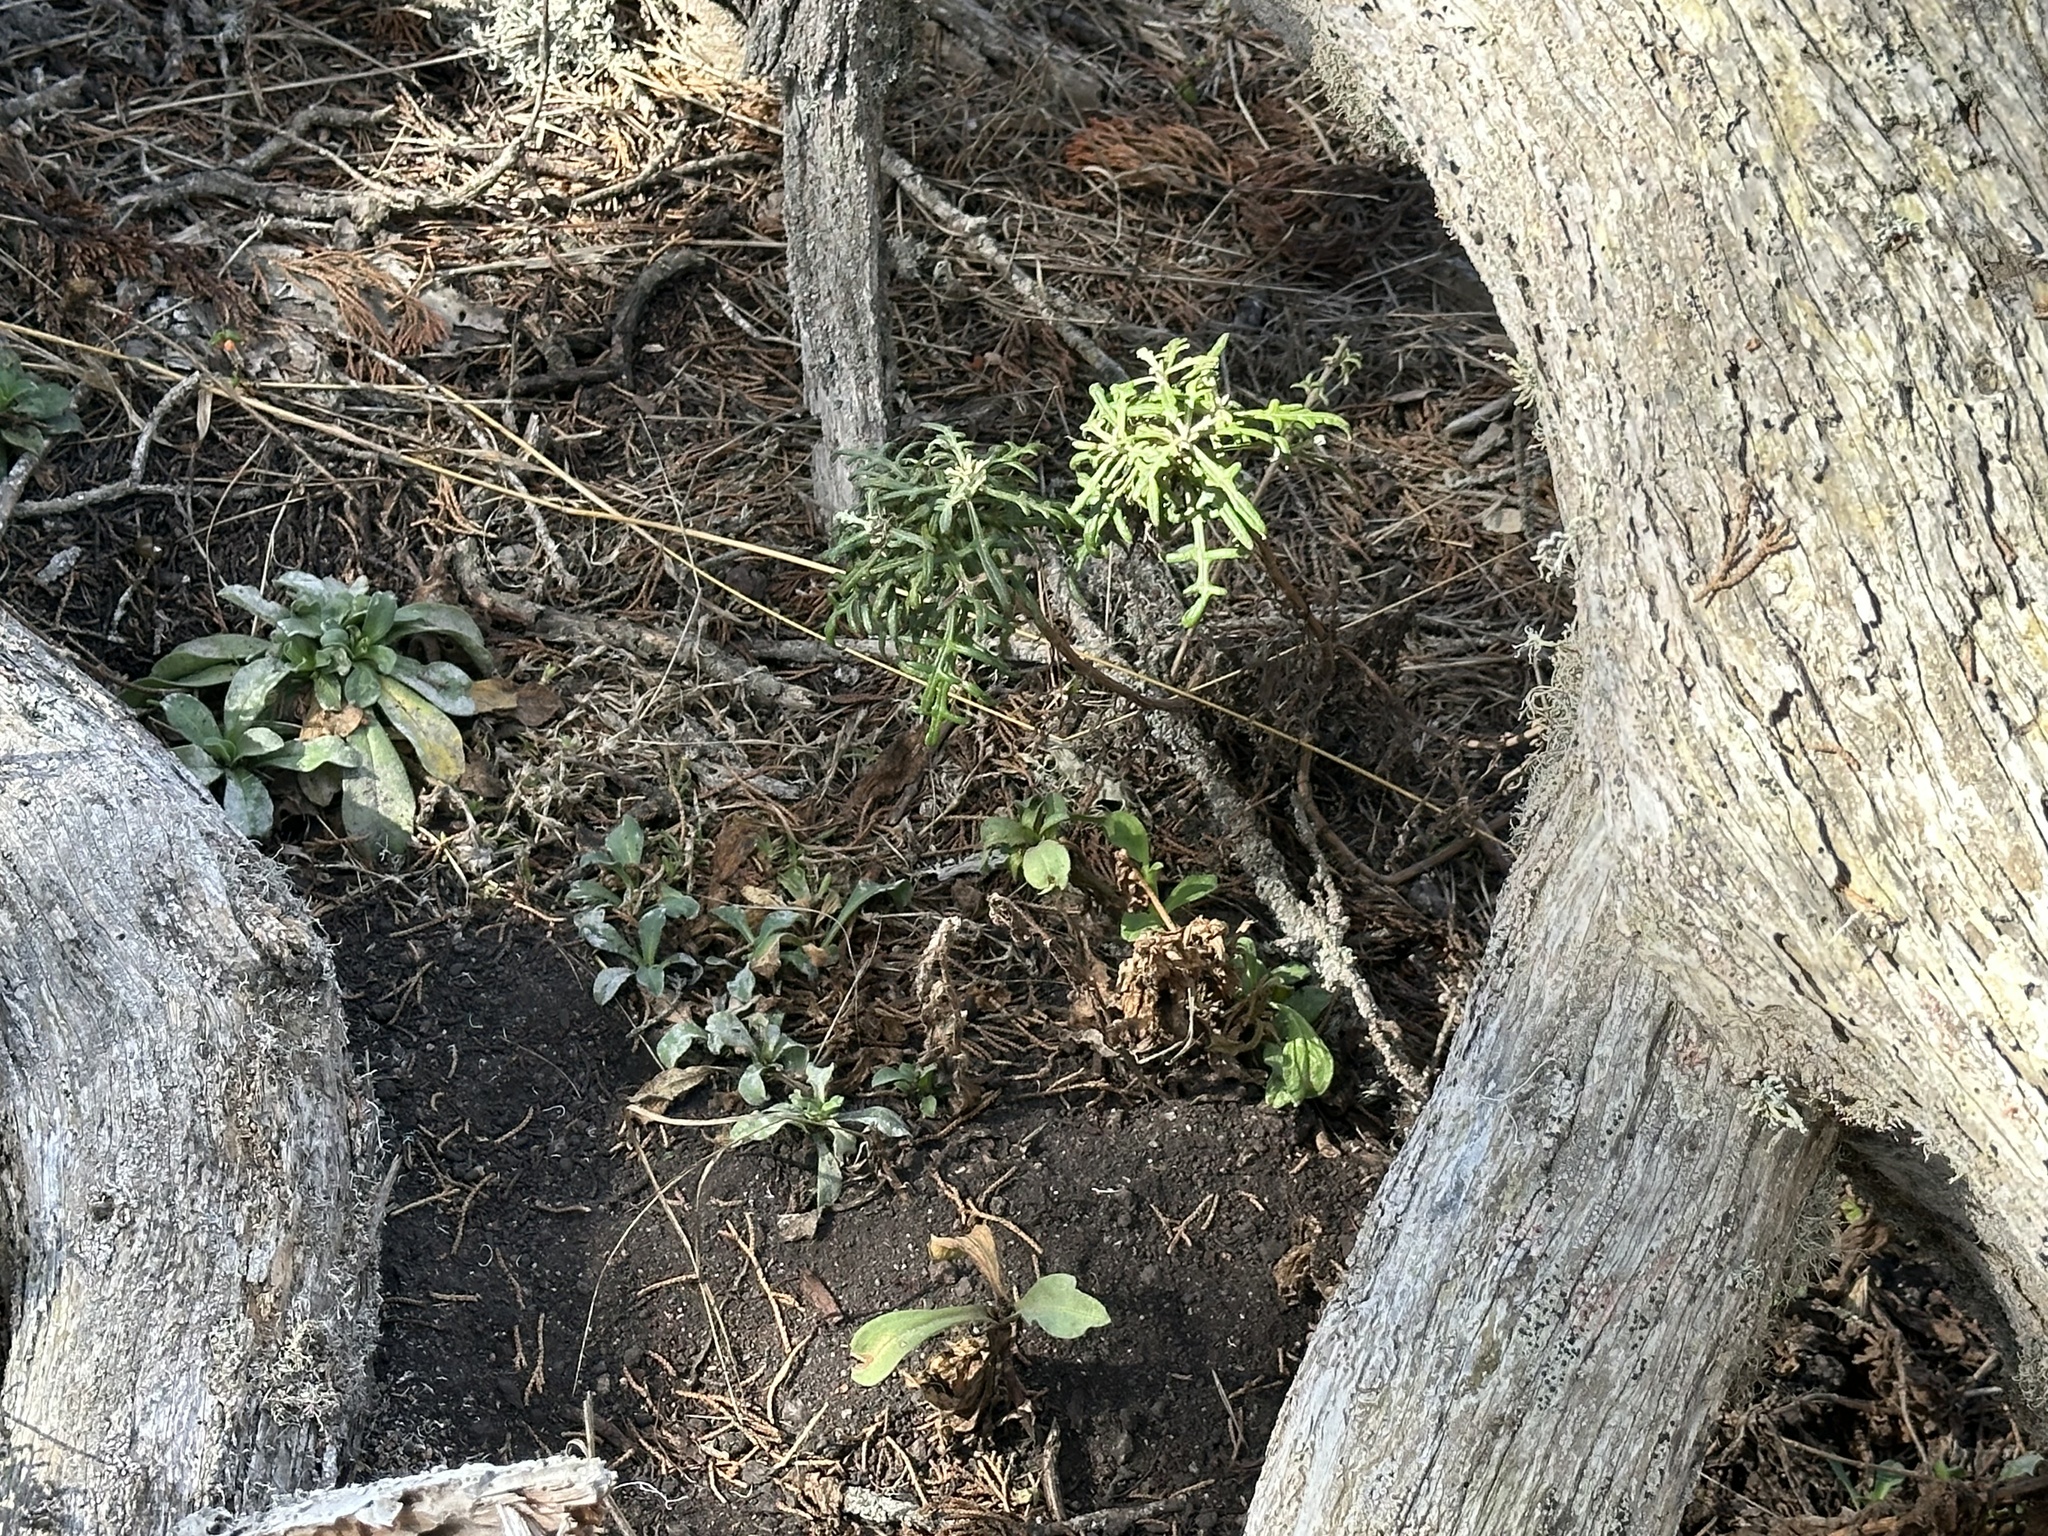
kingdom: Plantae
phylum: Tracheophyta
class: Magnoliopsida
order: Asterales
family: Asteraceae
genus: Eriophyllum
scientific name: Eriophyllum staechadifolium
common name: Lizardtail
